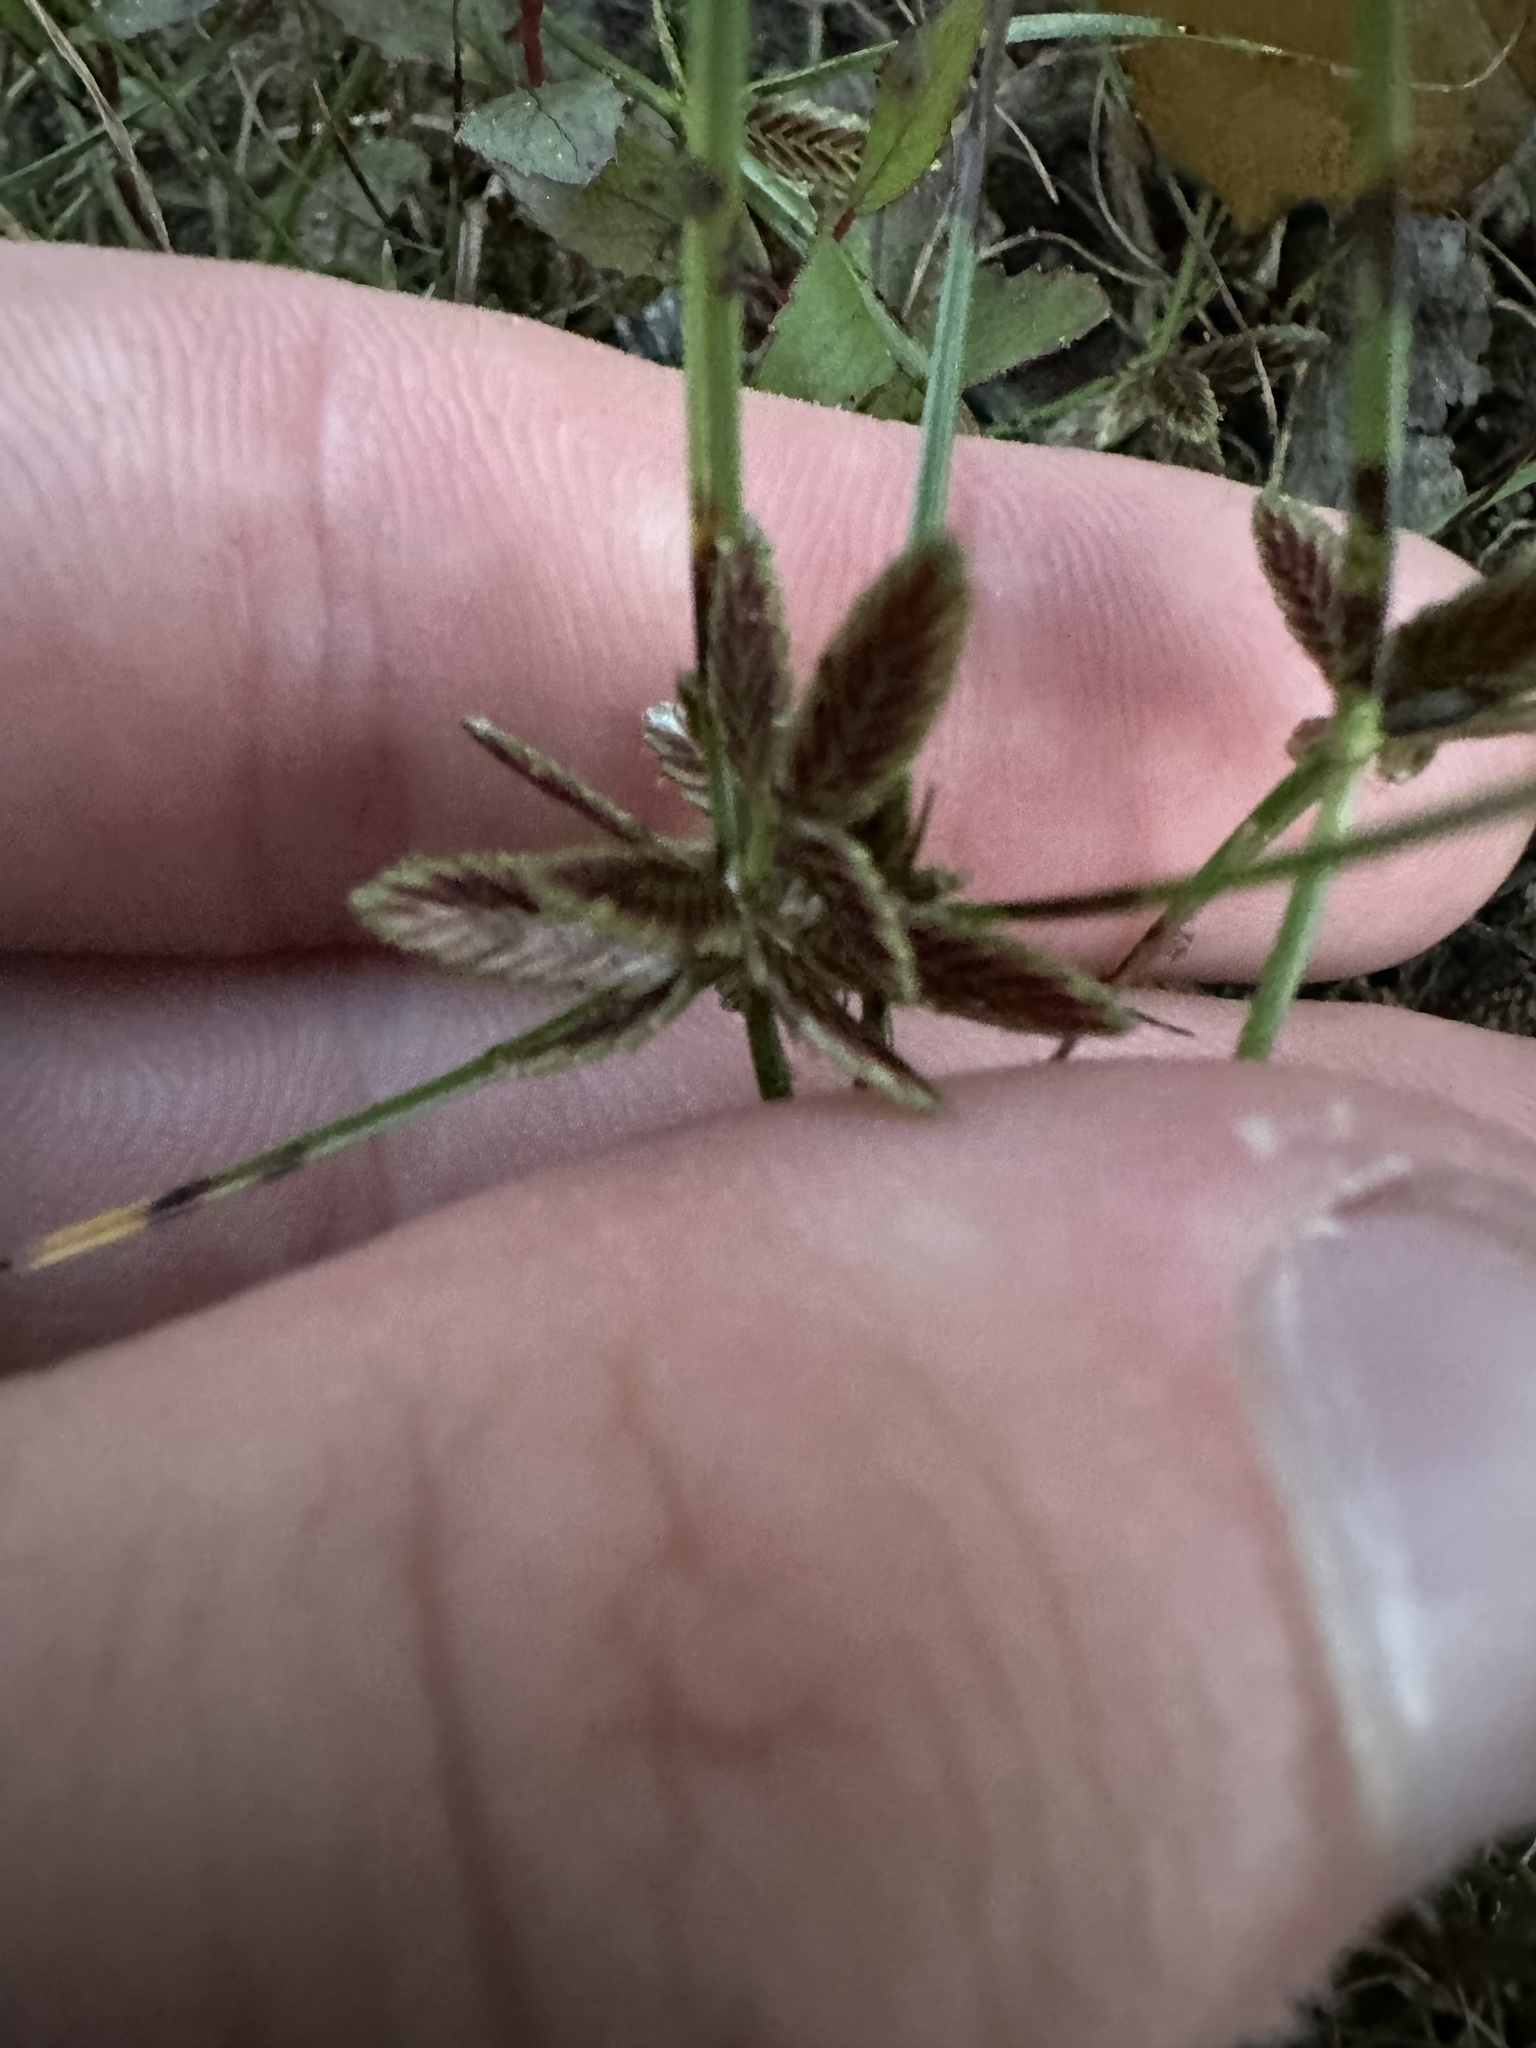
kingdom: Plantae
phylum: Tracheophyta
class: Liliopsida
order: Poales
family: Cyperaceae
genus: Cyperus
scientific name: Cyperus bipartitus
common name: Brook flatsedge
